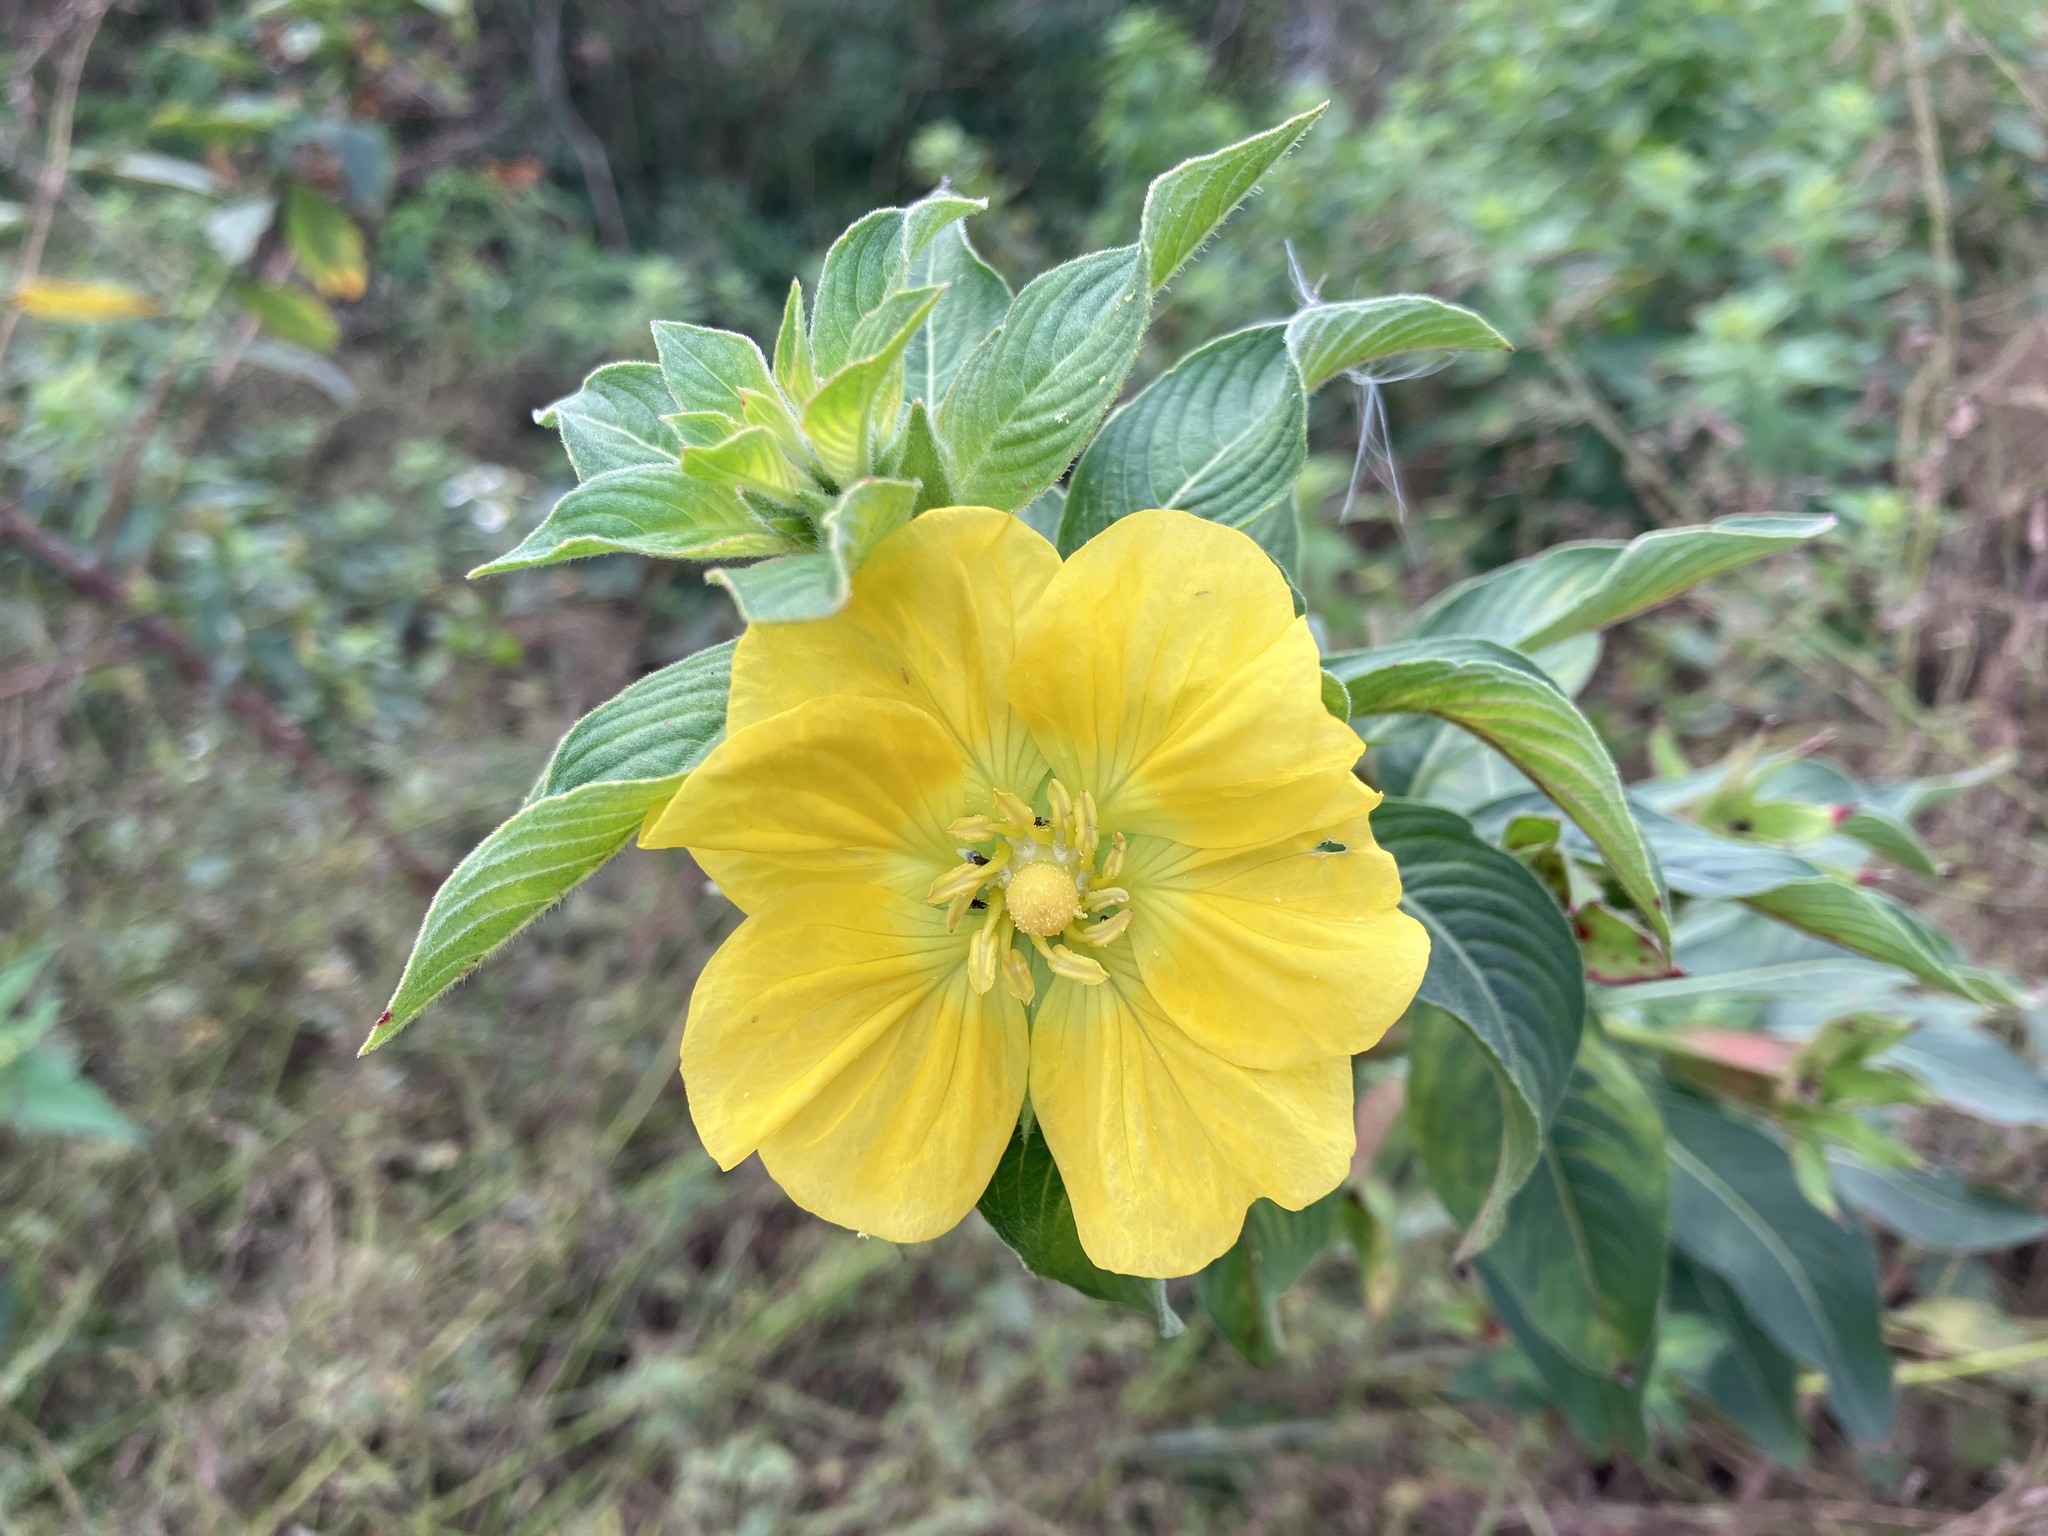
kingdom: Plantae
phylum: Tracheophyta
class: Magnoliopsida
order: Myrtales
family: Onagraceae
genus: Ludwigia
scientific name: Ludwigia peruviana
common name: Peruvian primrose-willow
